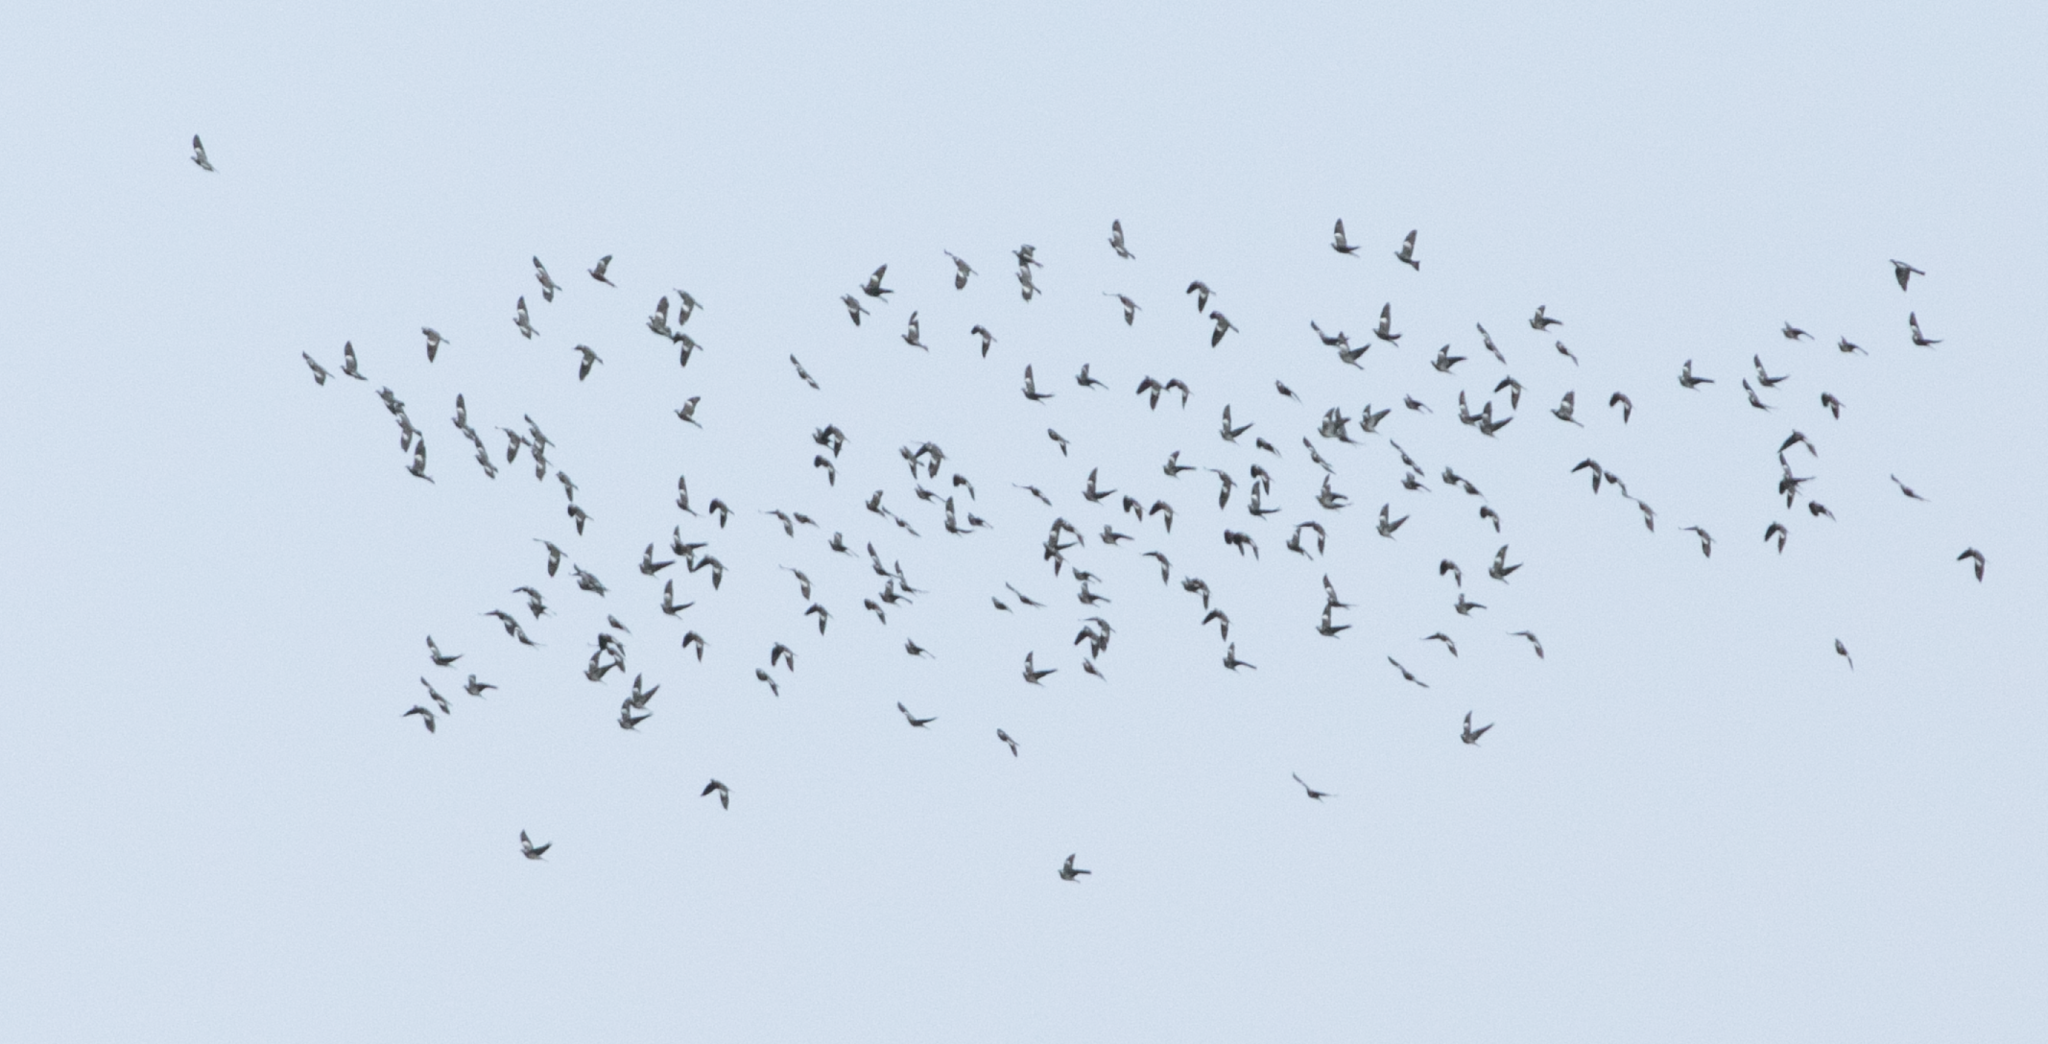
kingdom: Animalia
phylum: Chordata
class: Aves
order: Columbiformes
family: Columbidae
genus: Columba
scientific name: Columba palumbus
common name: Common wood pigeon
